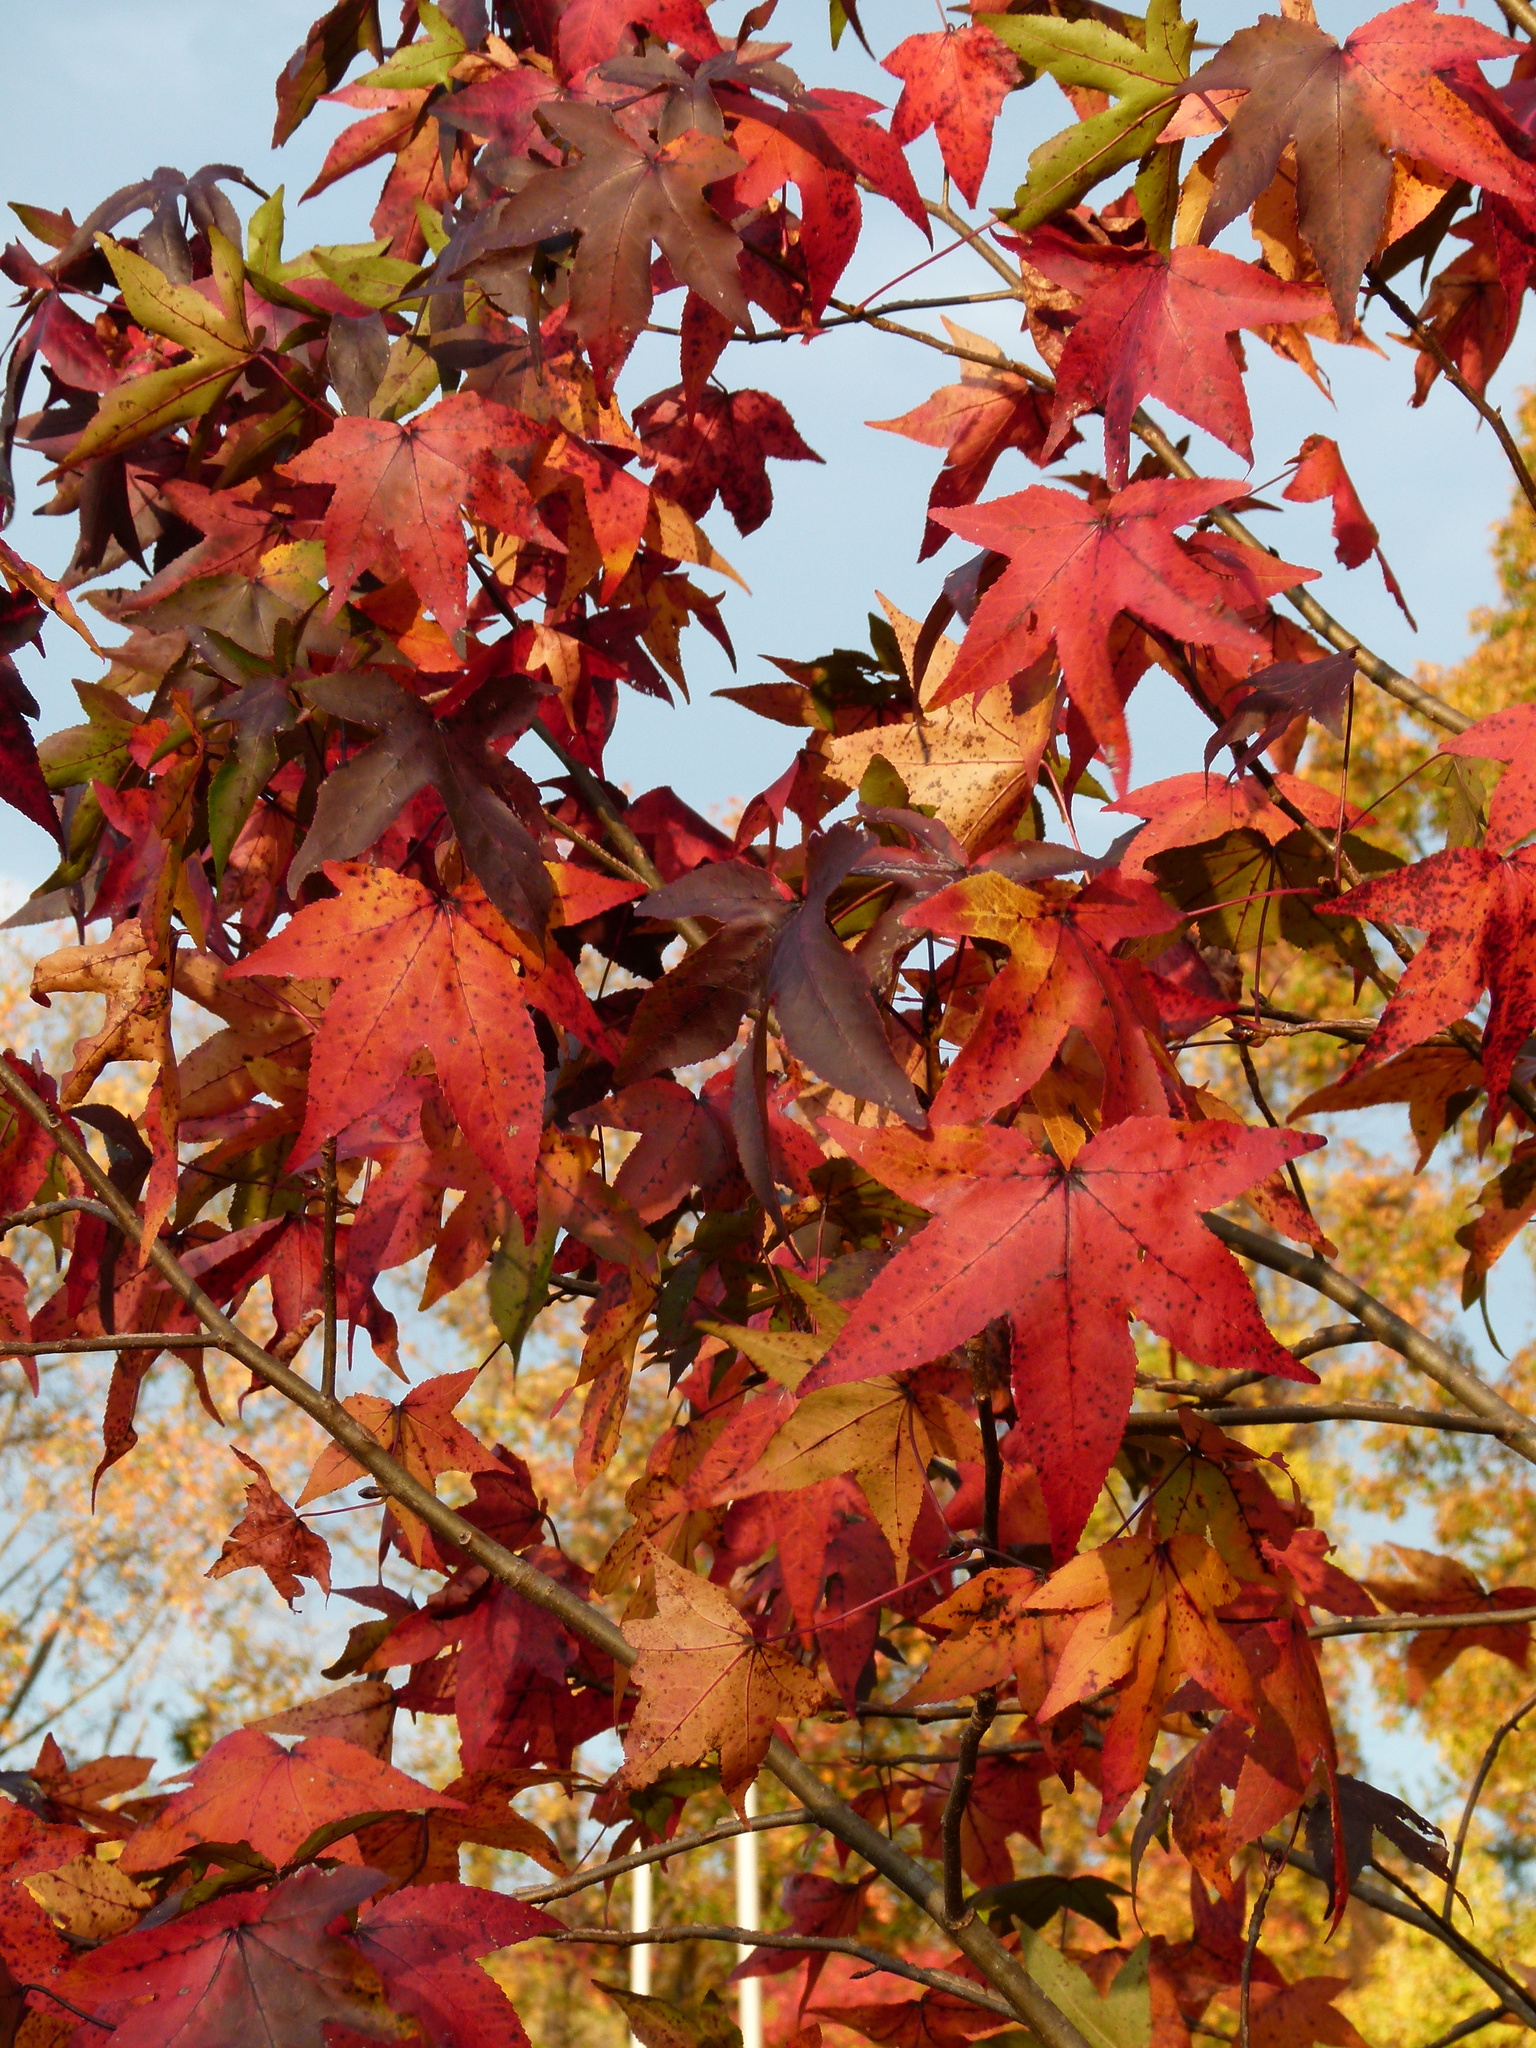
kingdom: Plantae
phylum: Tracheophyta
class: Magnoliopsida
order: Saxifragales
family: Altingiaceae
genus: Liquidambar
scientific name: Liquidambar styraciflua
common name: Sweet gum
